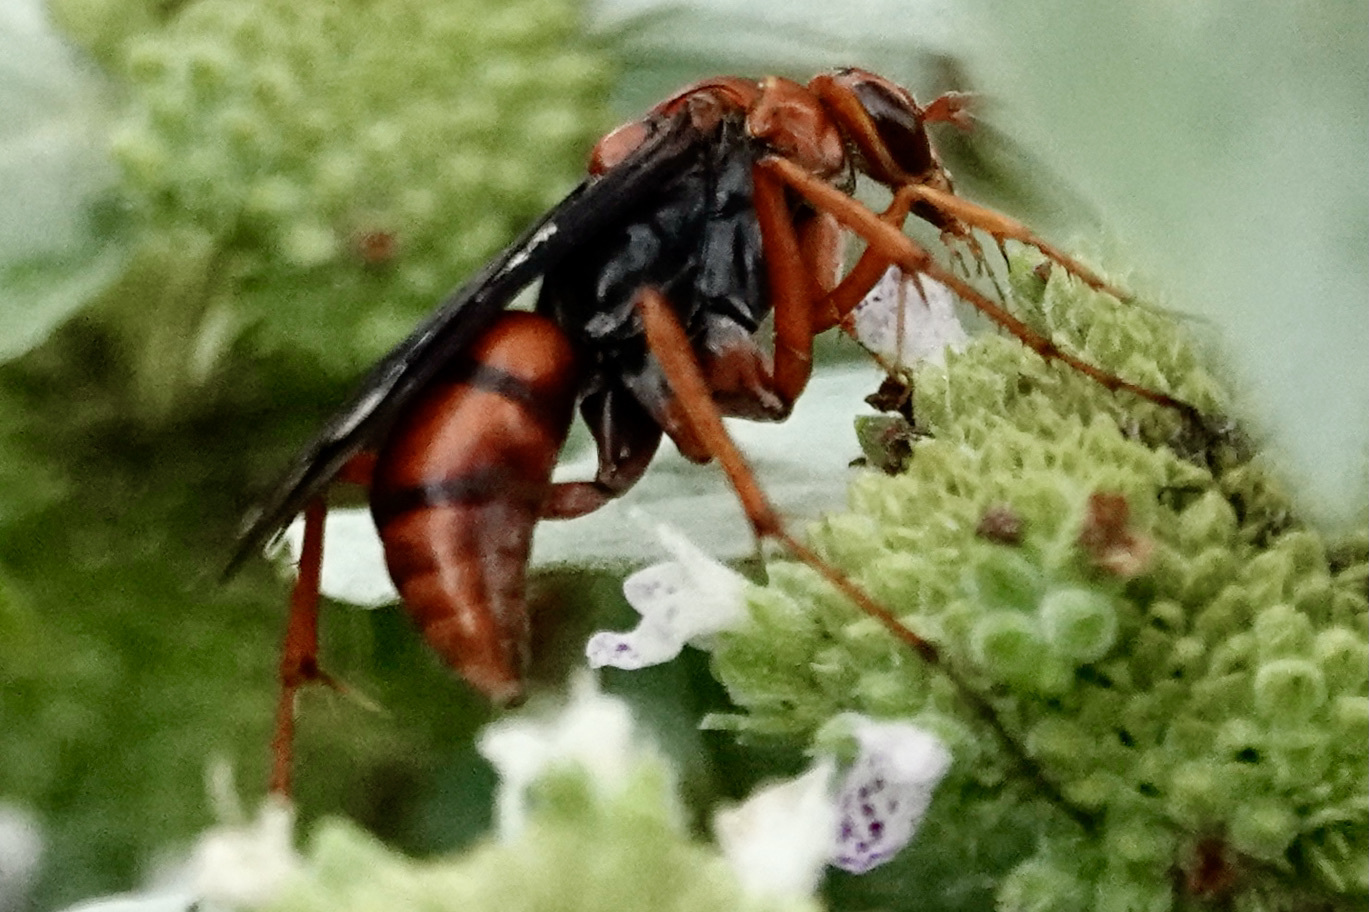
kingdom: Animalia
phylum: Arthropoda
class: Insecta
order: Hymenoptera
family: Pompilidae
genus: Tachypompilus
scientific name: Tachypompilus ferrugineus
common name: Rusty spider wasp
